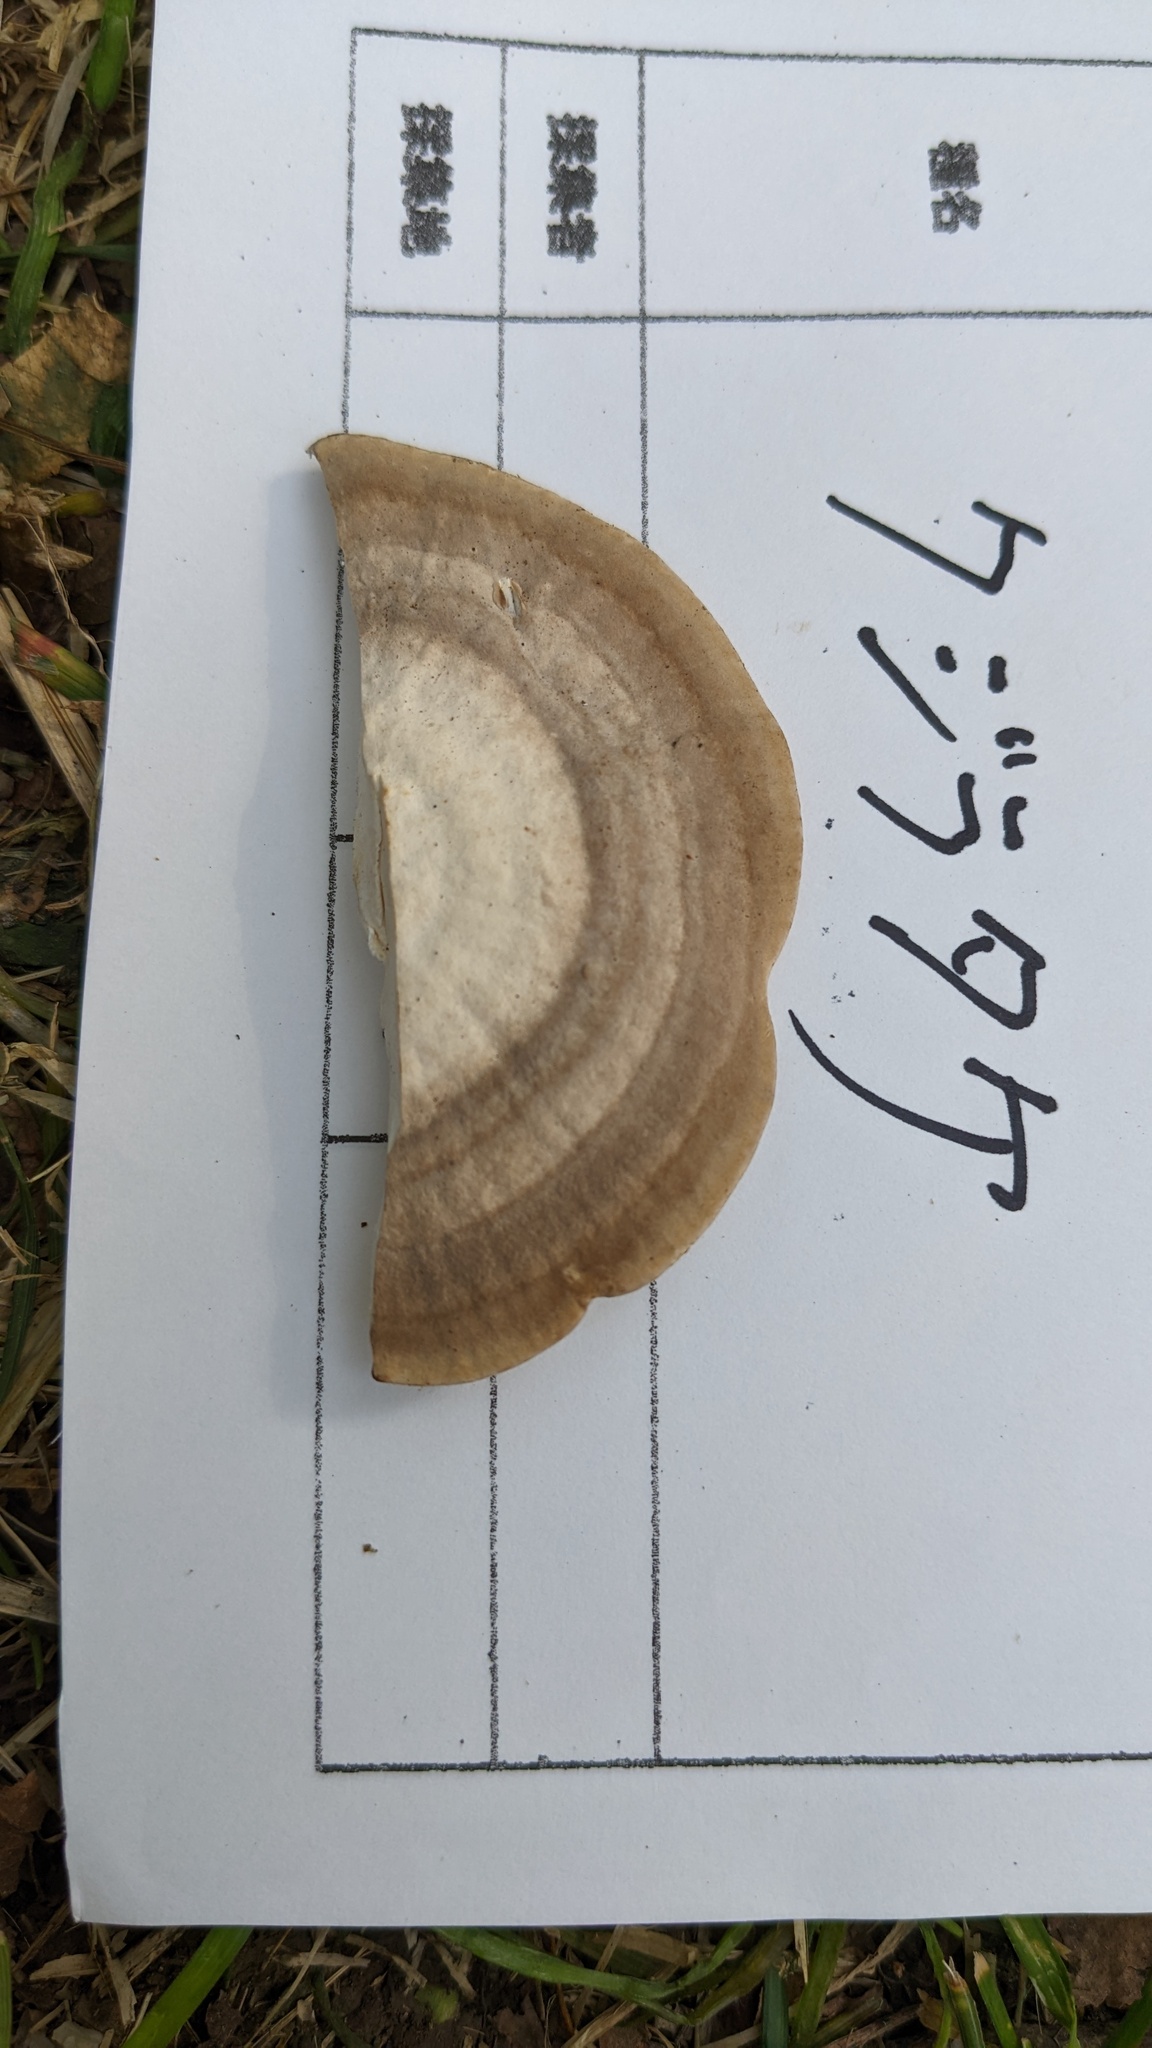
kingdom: Fungi
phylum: Basidiomycota
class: Agaricomycetes
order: Polyporales
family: Polyporaceae
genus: Trametes
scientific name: Trametes orientalis
